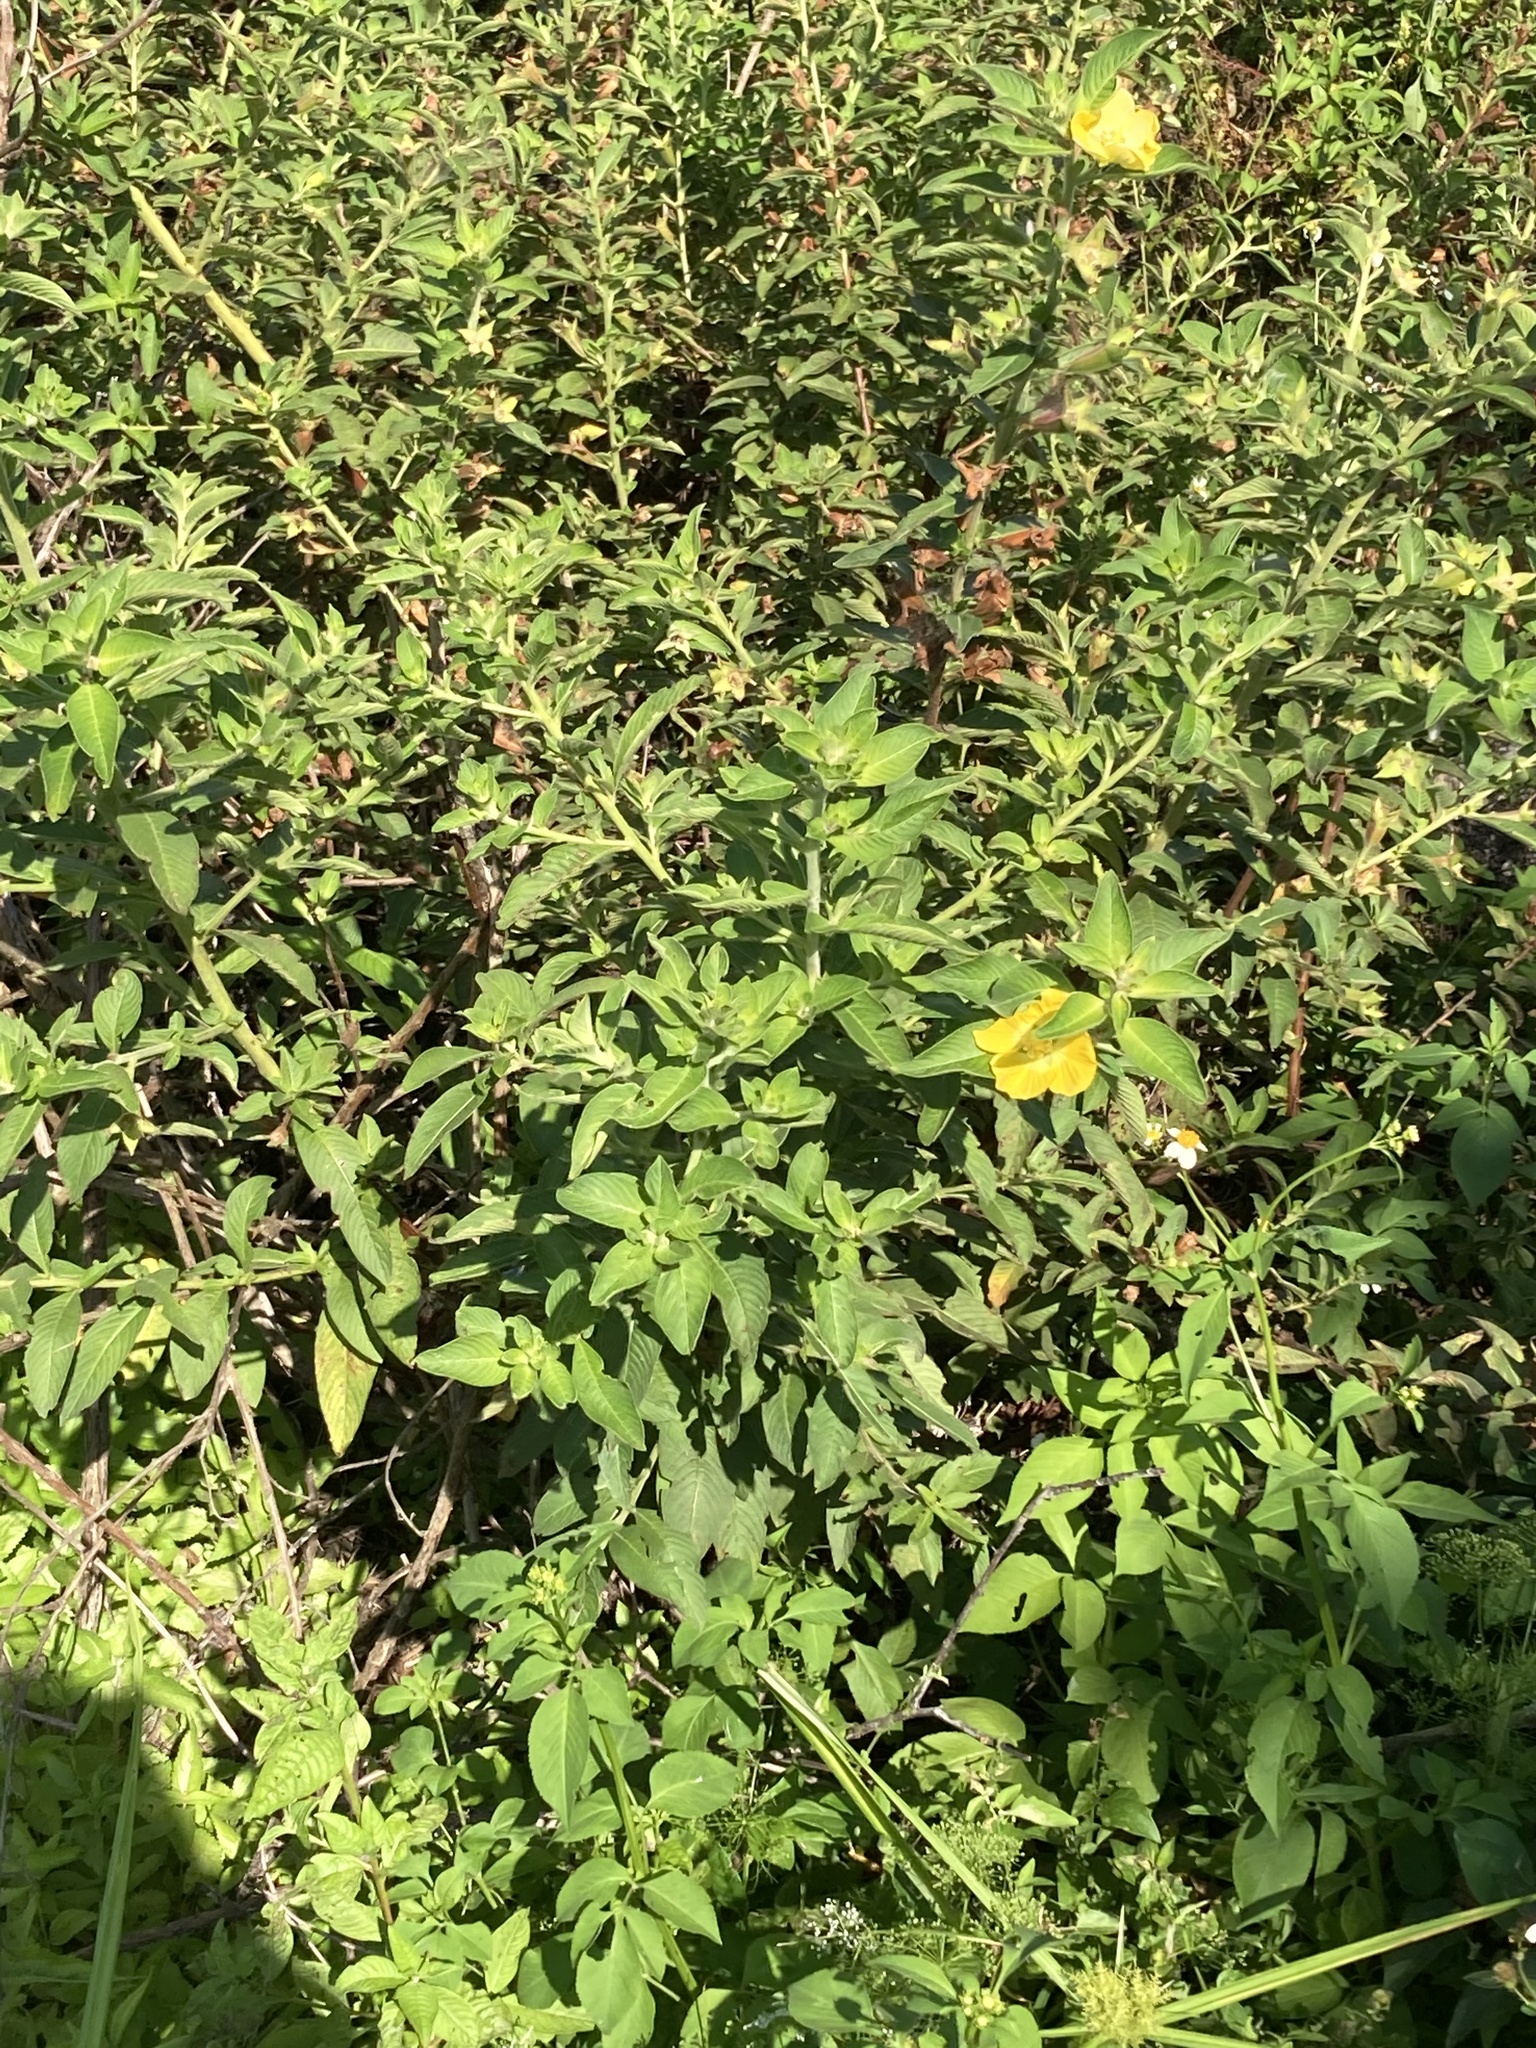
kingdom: Plantae
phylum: Tracheophyta
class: Magnoliopsida
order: Myrtales
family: Onagraceae
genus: Ludwigia
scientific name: Ludwigia peruviana
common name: Peruvian primrose-willow
